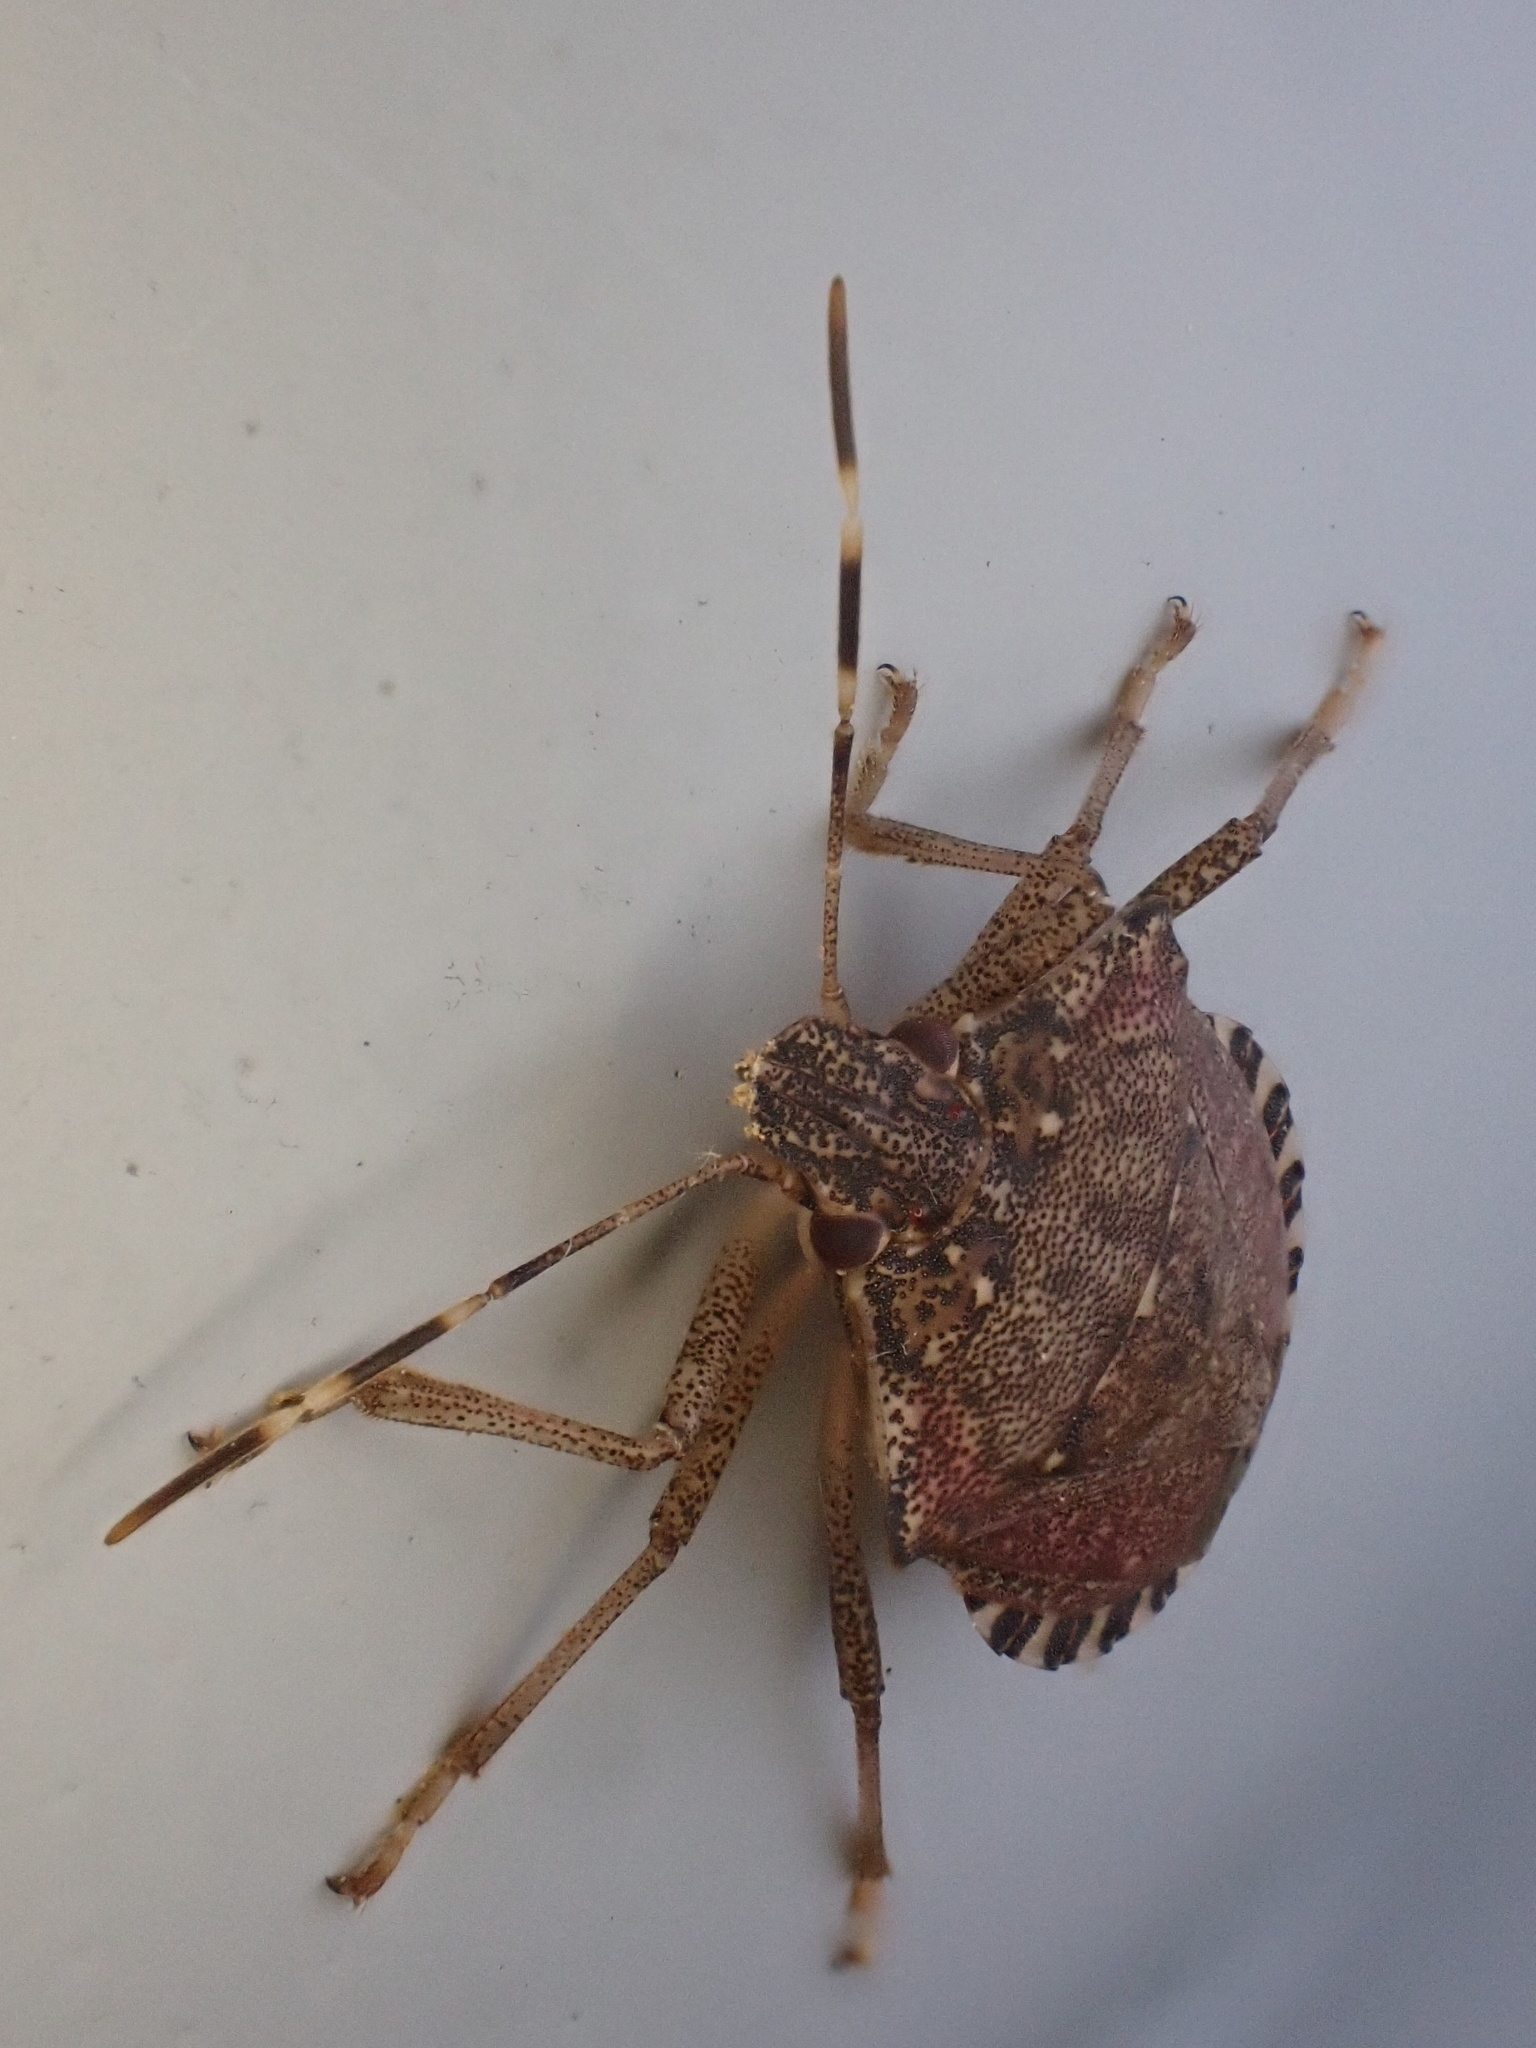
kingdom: Animalia
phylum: Arthropoda
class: Insecta
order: Hemiptera
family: Pentatomidae
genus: Halyomorpha
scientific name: Halyomorpha halys
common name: Brown marmorated stink bug
